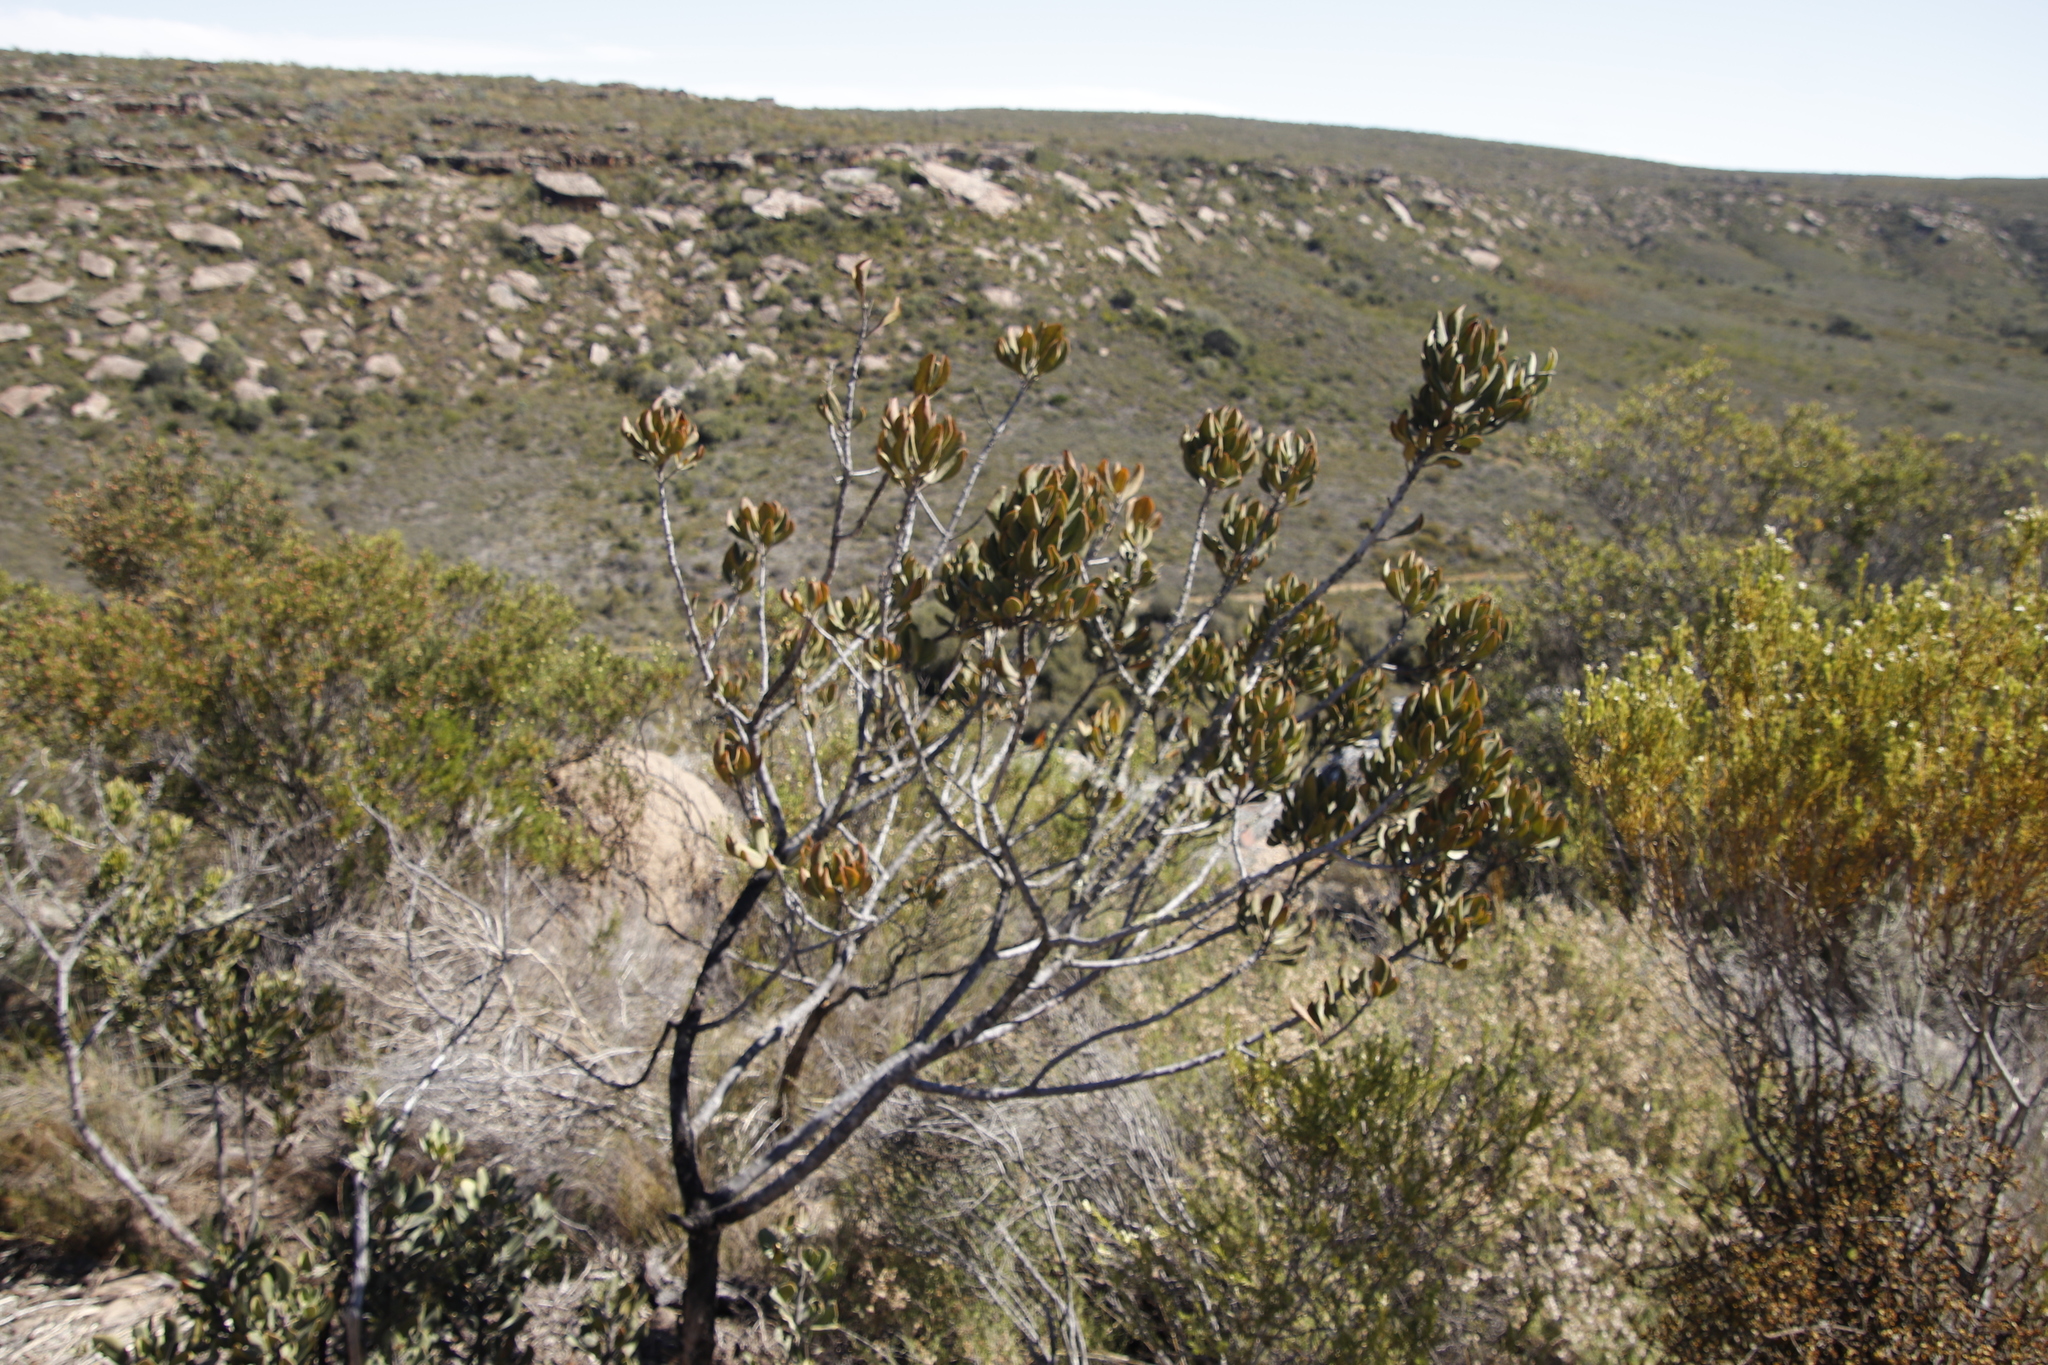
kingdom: Plantae
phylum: Tracheophyta
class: Magnoliopsida
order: Sapindales
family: Anacardiaceae
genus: Searsia
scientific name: Searsia scytophylla
